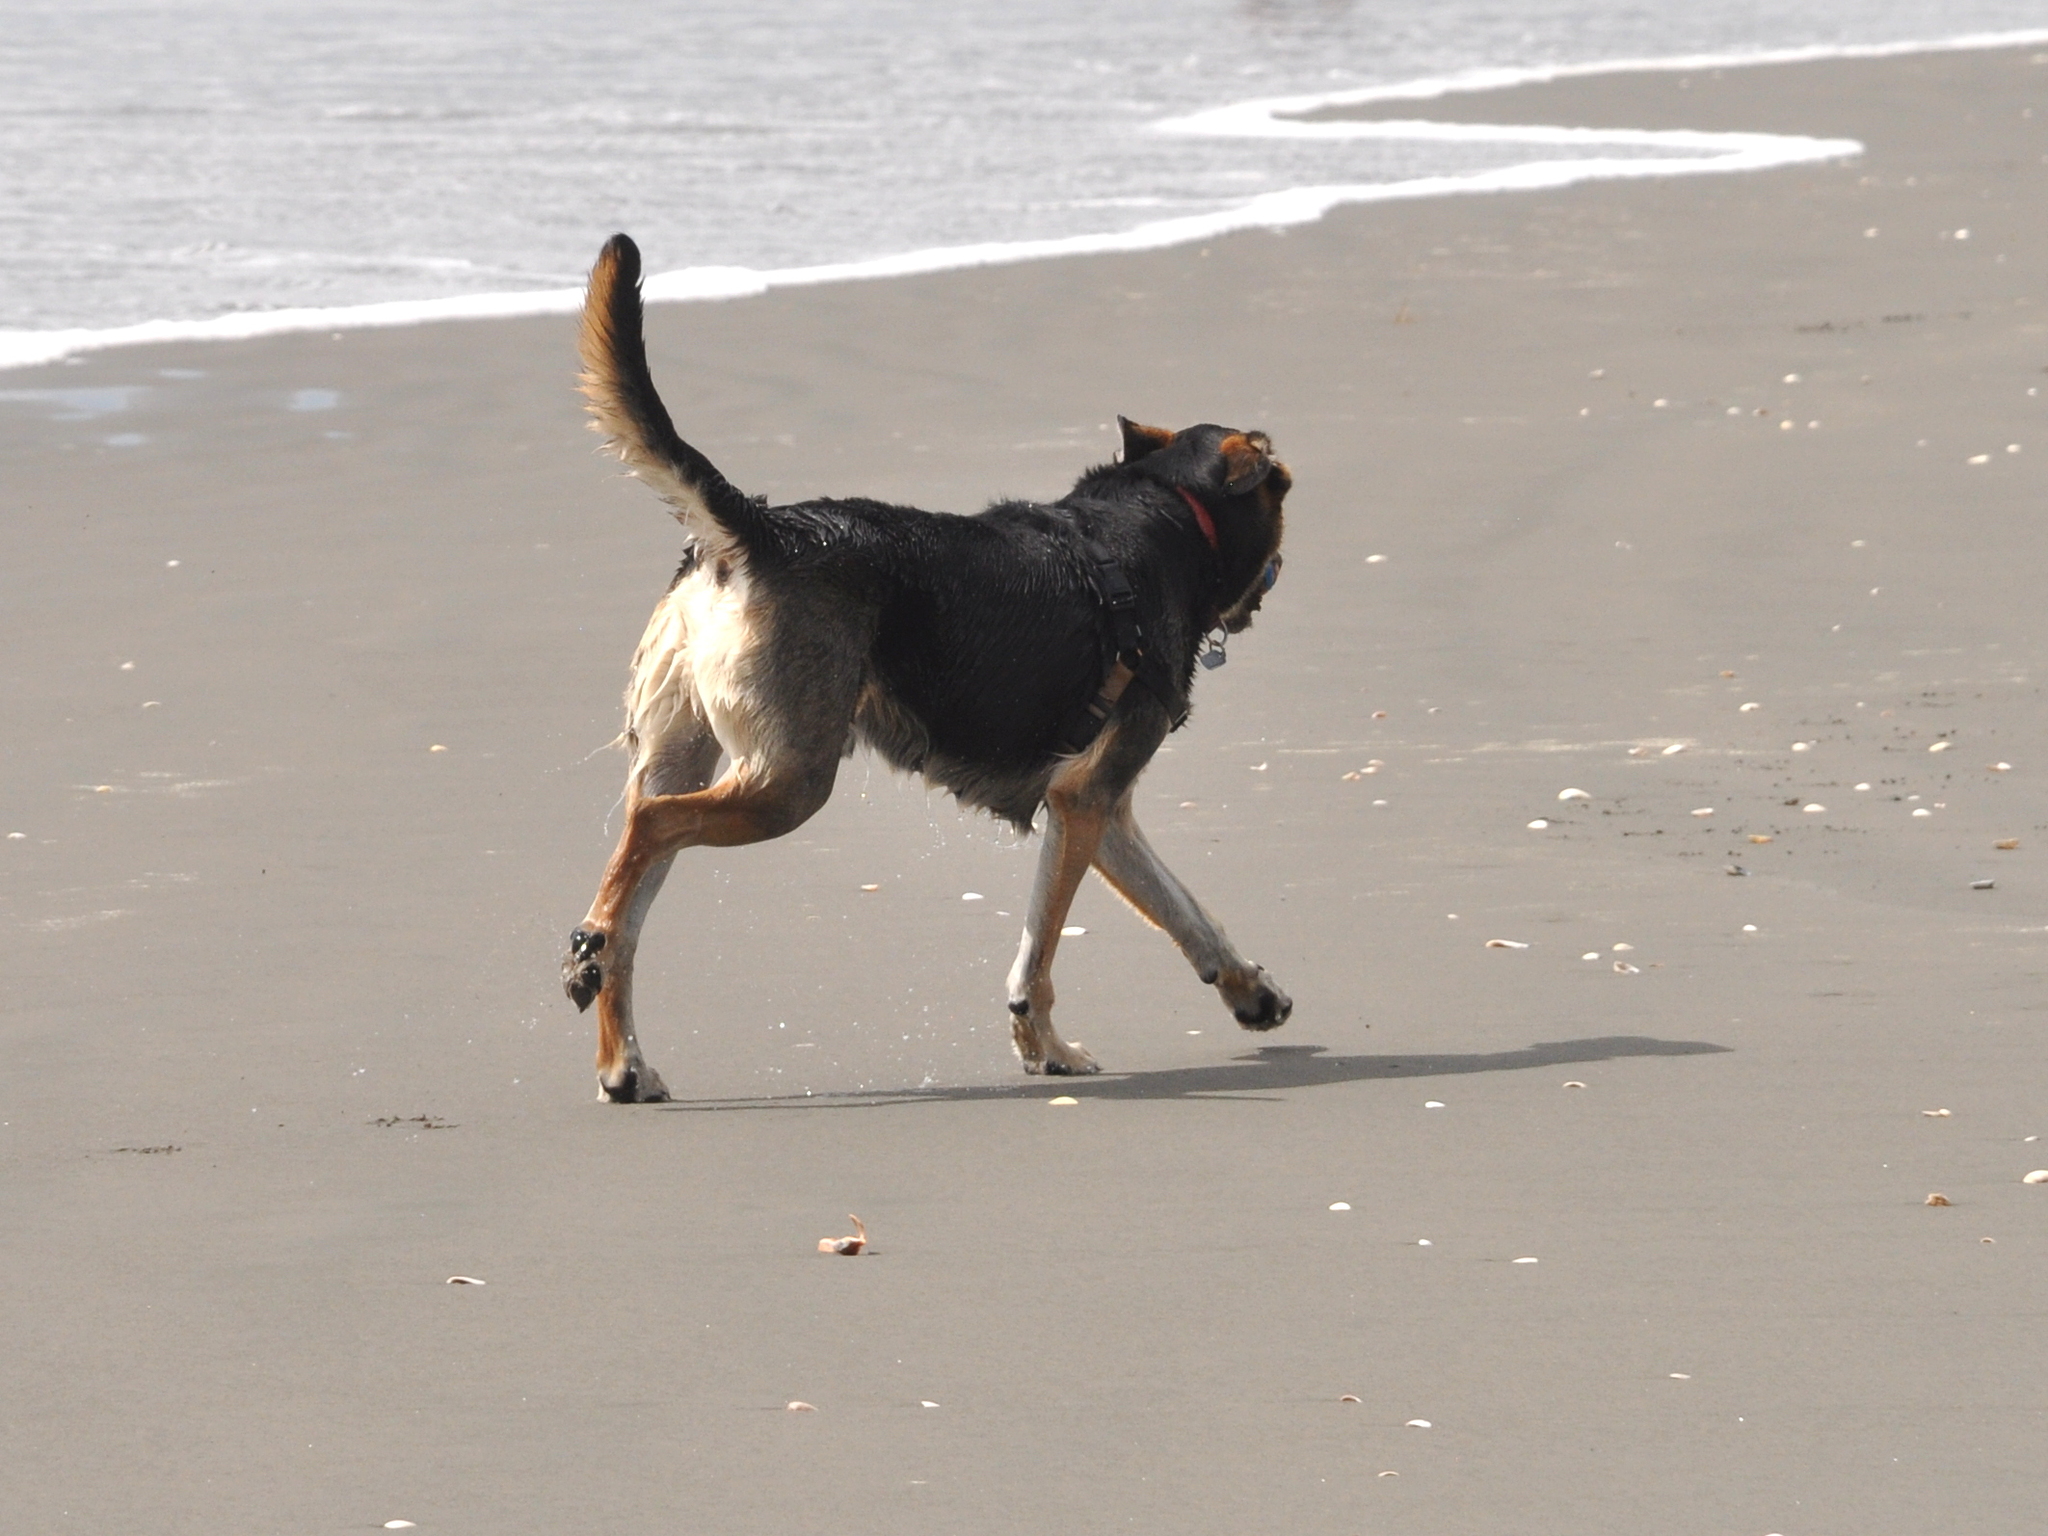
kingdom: Animalia
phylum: Chordata
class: Mammalia
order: Carnivora
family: Canidae
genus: Canis
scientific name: Canis lupus
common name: Gray wolf
